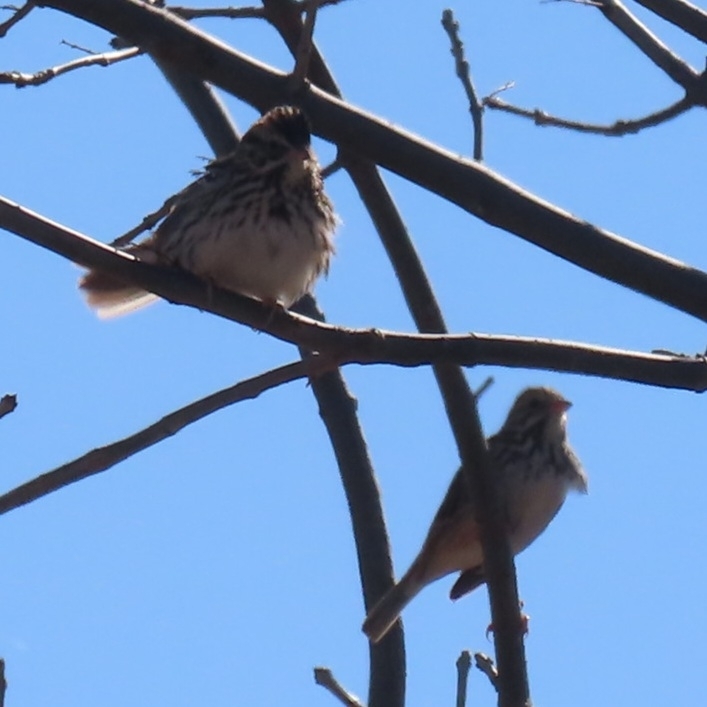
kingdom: Animalia
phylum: Chordata
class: Aves
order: Passeriformes
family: Passerellidae
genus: Passerculus
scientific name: Passerculus sandwichensis
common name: Savannah sparrow
